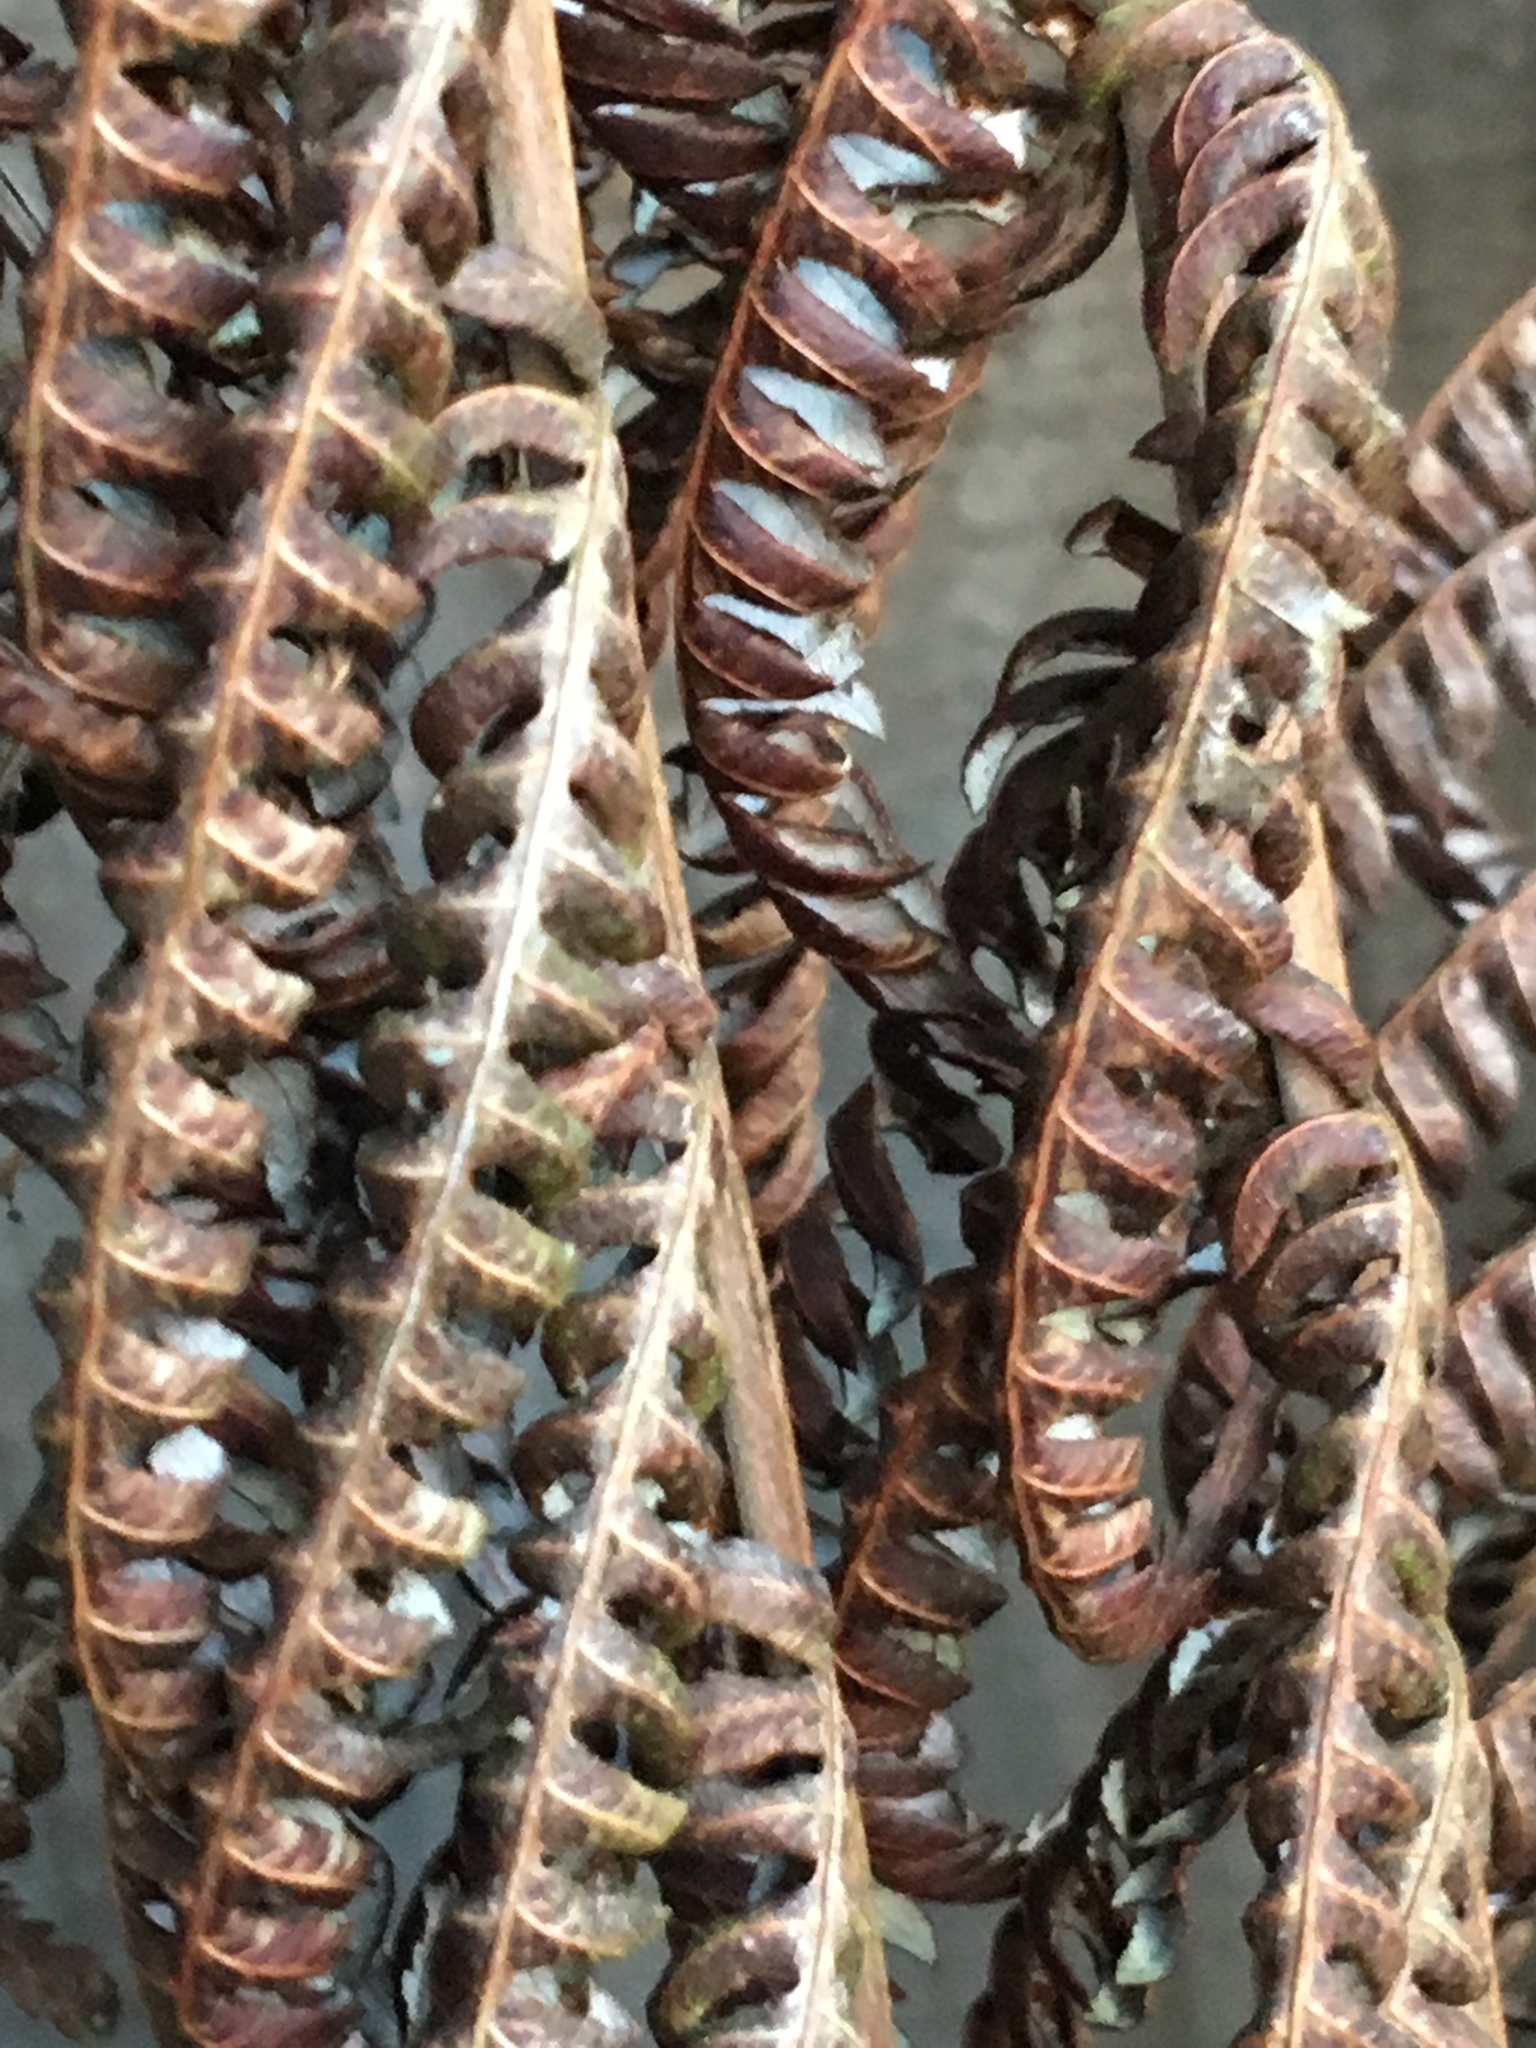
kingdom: Plantae
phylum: Tracheophyta
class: Polypodiopsida
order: Cyatheales
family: Cyatheaceae
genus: Alsophila
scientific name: Alsophila dealbata
